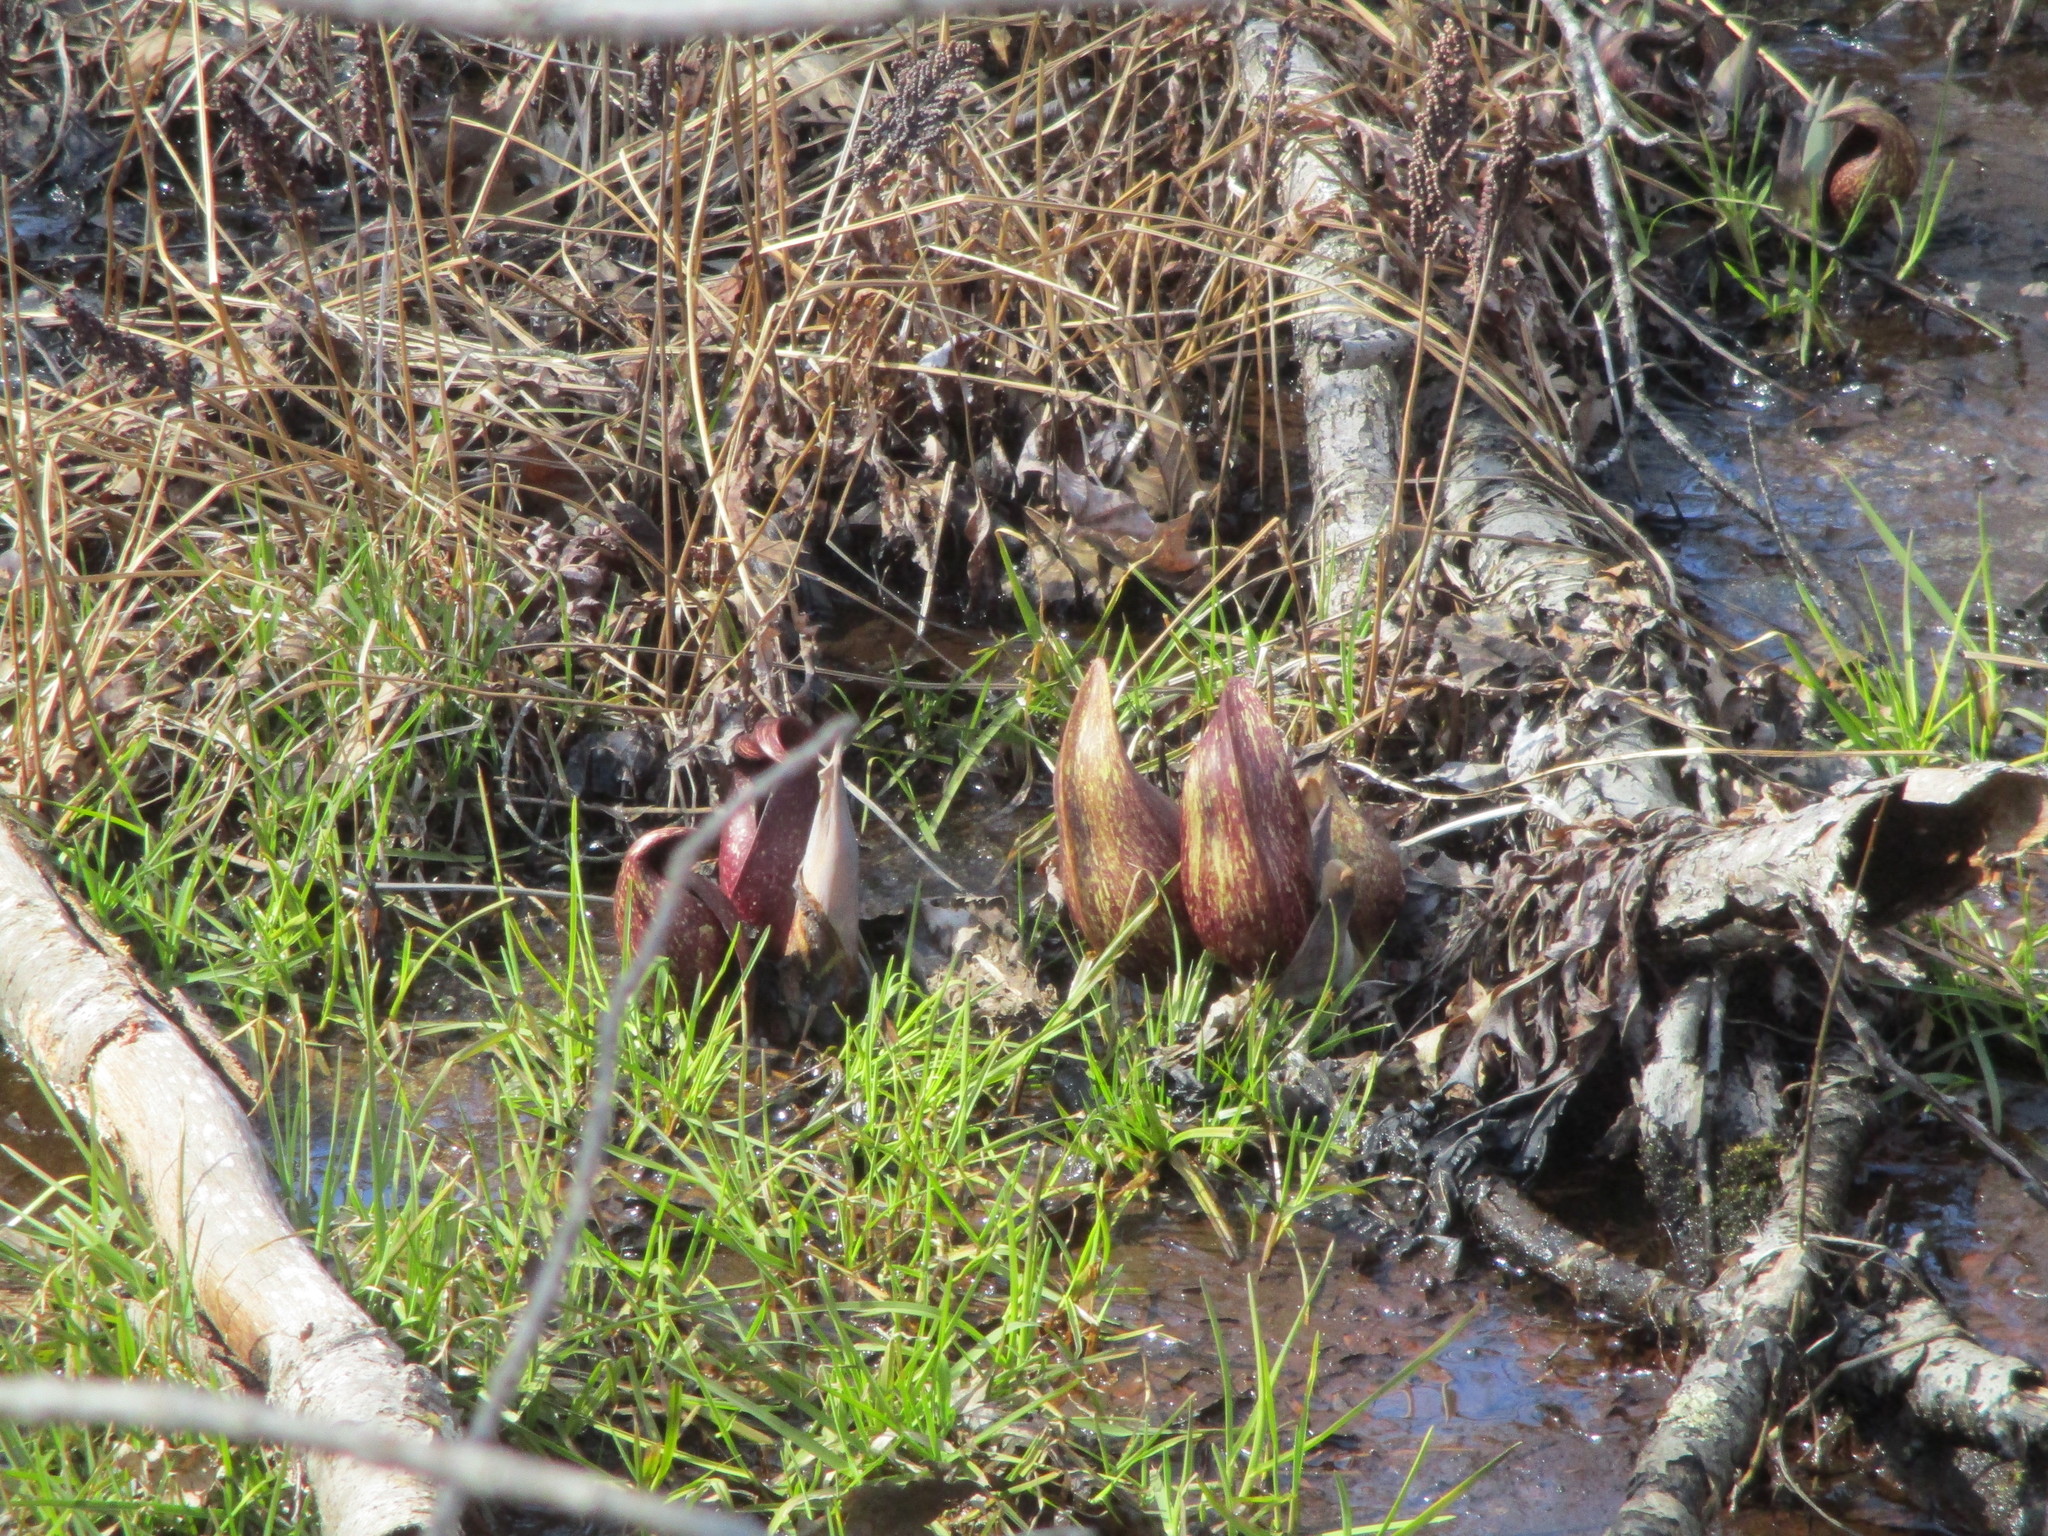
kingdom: Plantae
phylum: Tracheophyta
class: Liliopsida
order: Alismatales
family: Araceae
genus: Symplocarpus
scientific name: Symplocarpus foetidus
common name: Eastern skunk cabbage
